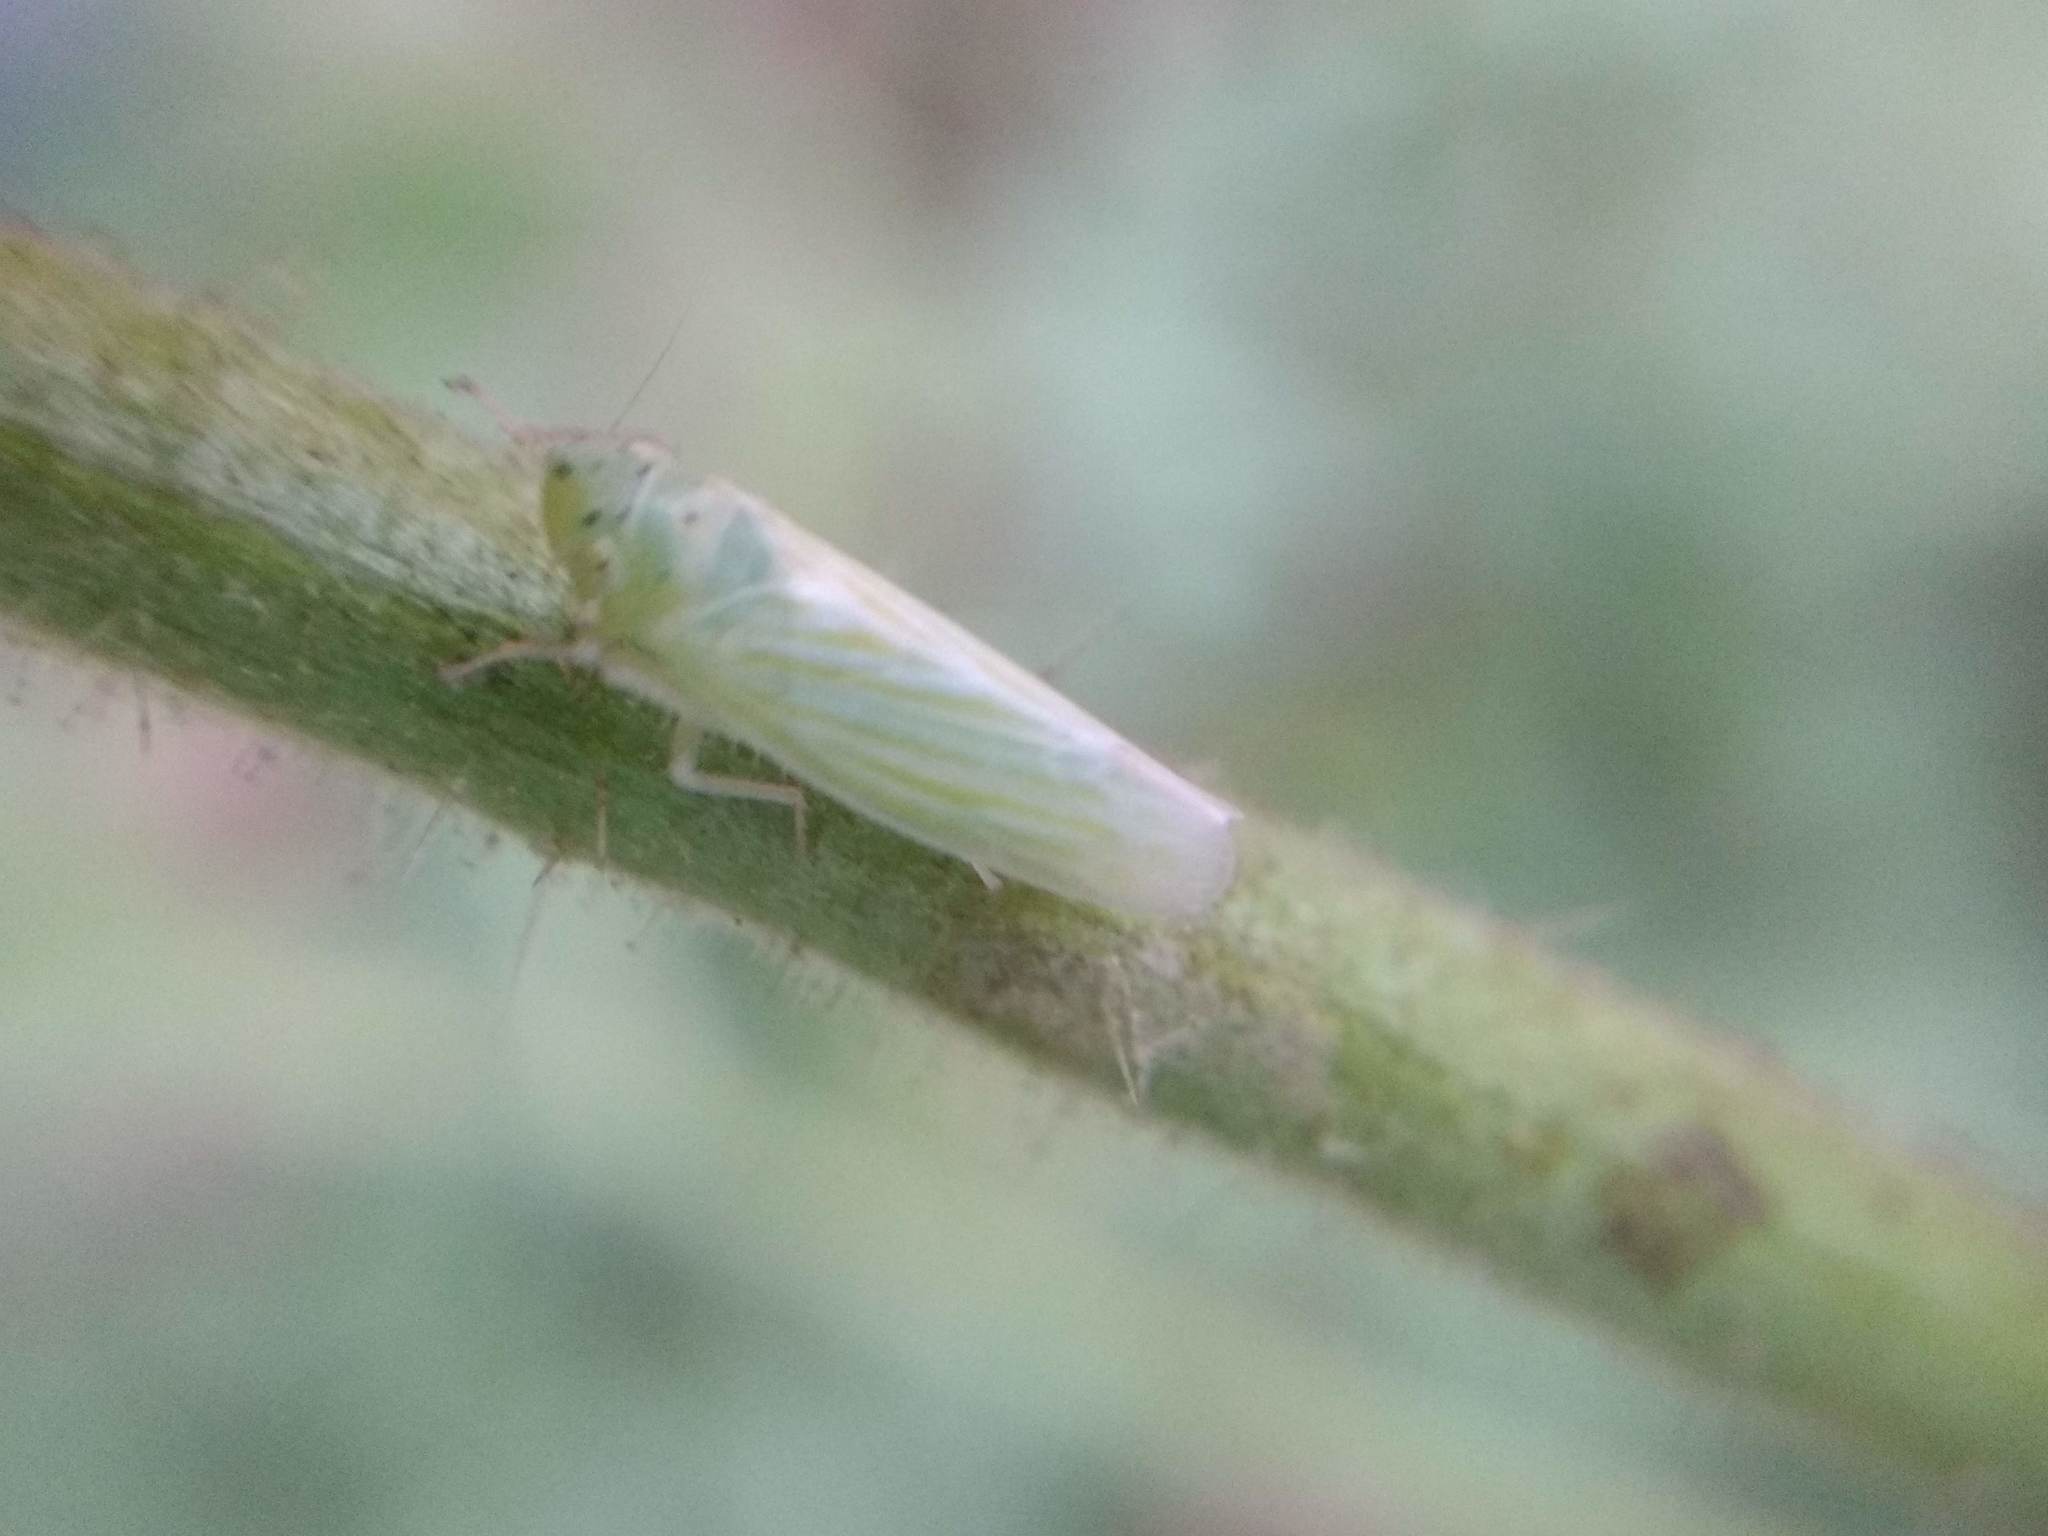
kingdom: Animalia
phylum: Arthropoda
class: Insecta
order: Hemiptera
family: Cicadellidae
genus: Pagaronia
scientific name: Pagaronia tredecimpunctata
